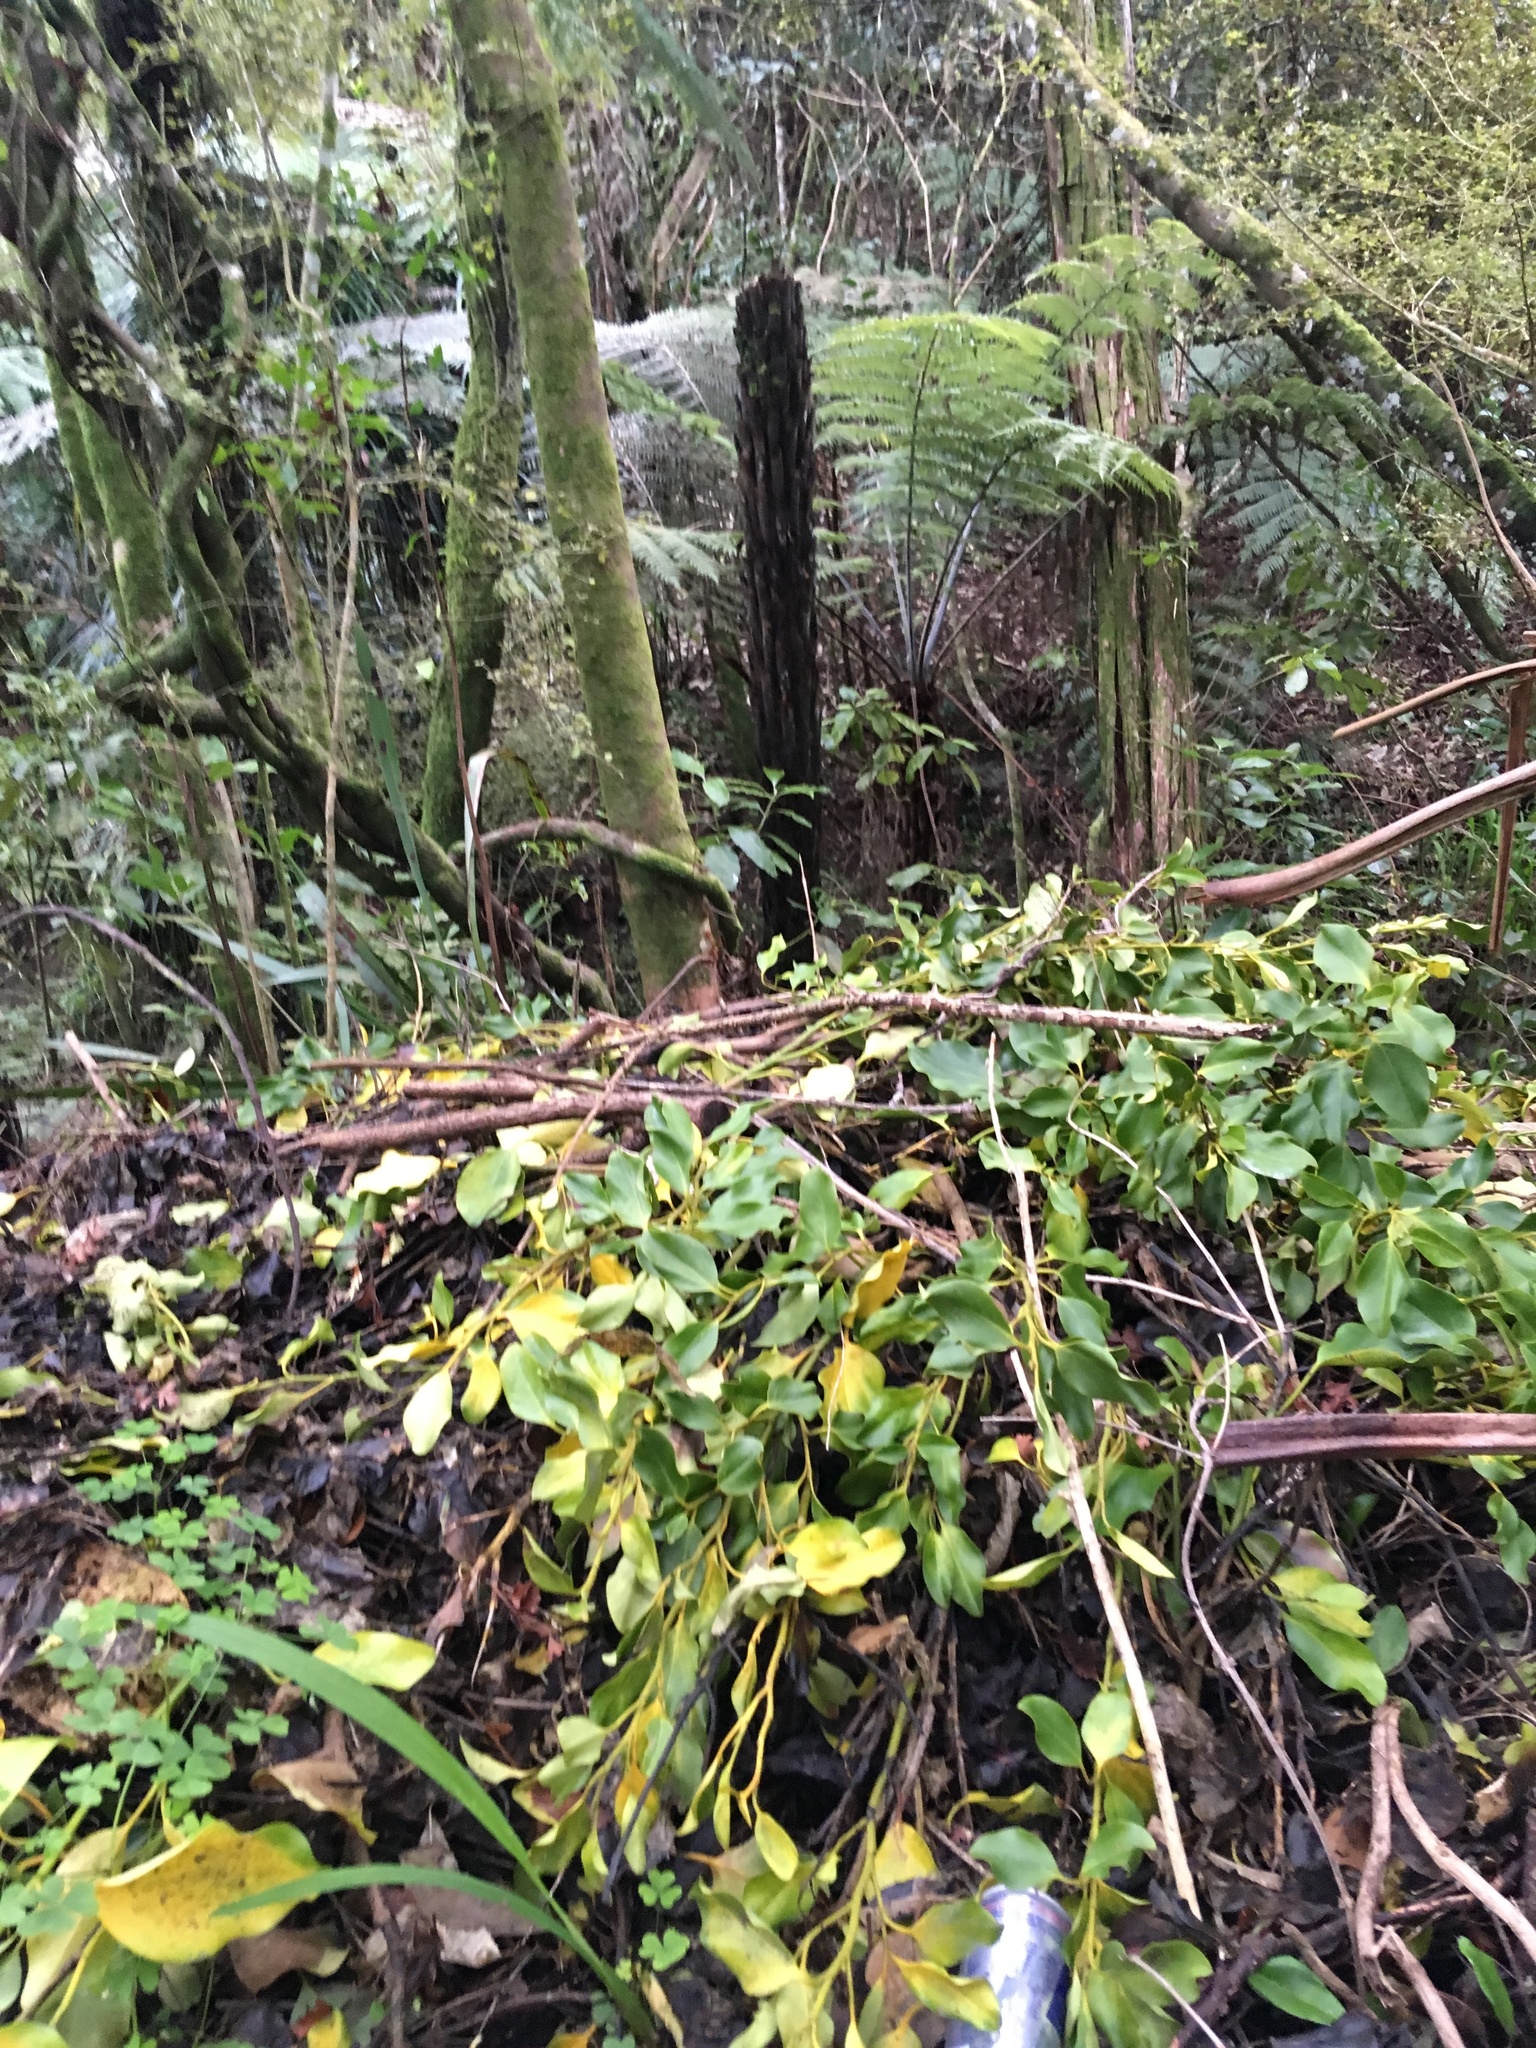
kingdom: Plantae
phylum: Tracheophyta
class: Liliopsida
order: Asparagales
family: Asphodelaceae
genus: Phormium
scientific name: Phormium tenax
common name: New zealand flax
